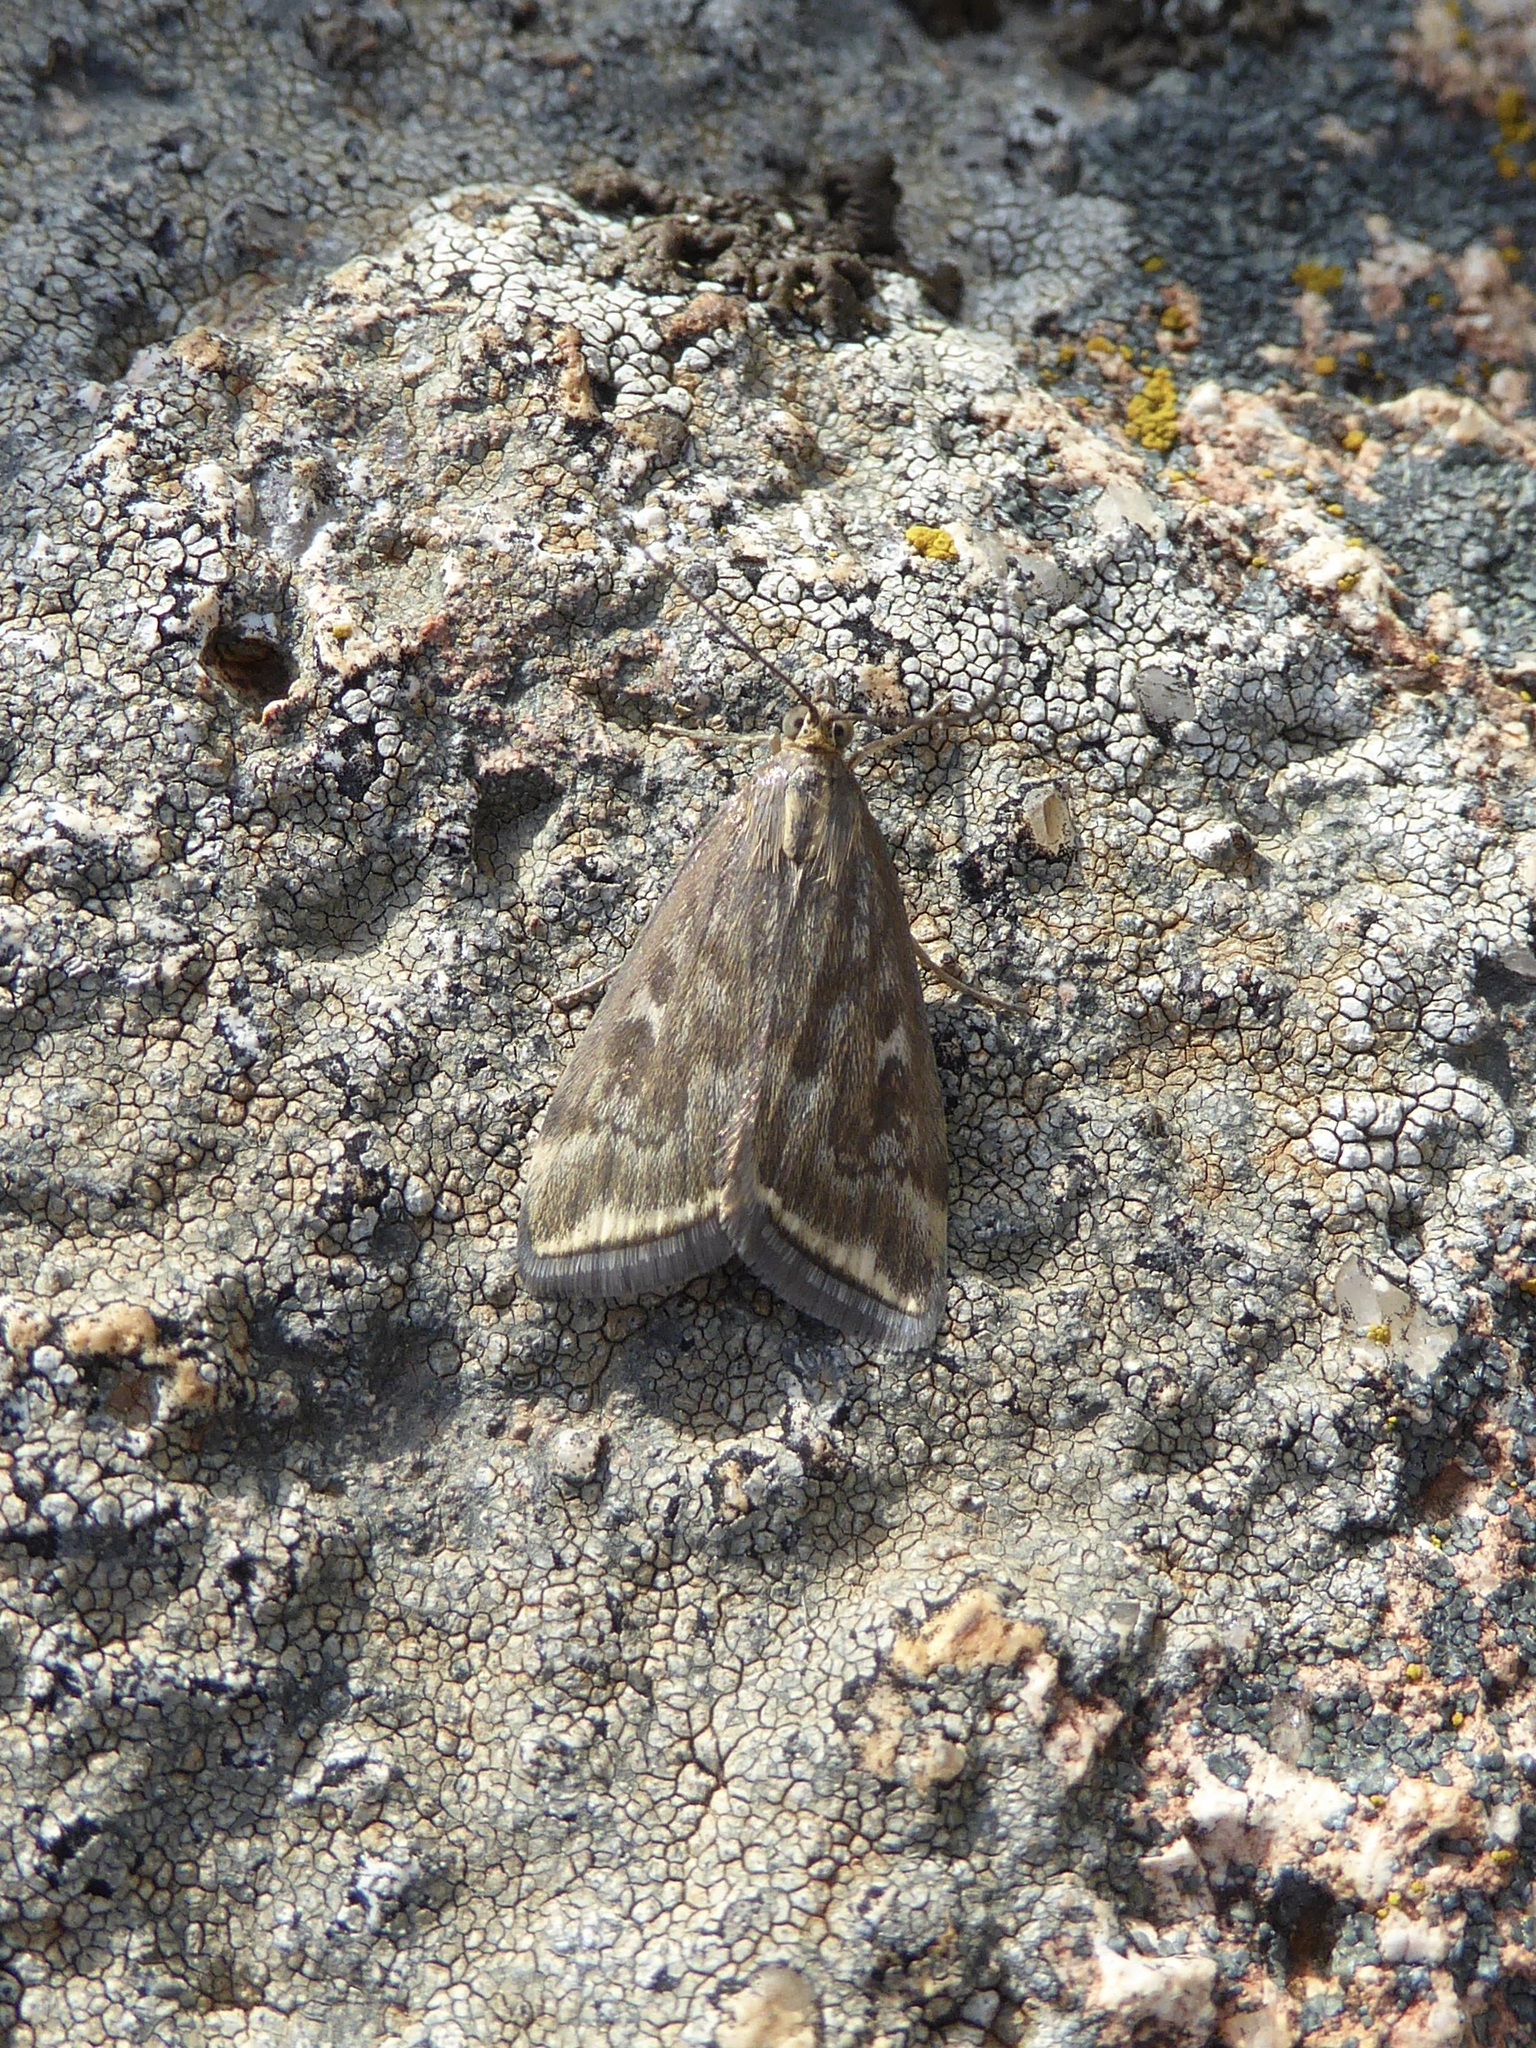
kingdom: Animalia
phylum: Arthropoda
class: Insecta
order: Lepidoptera
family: Crambidae
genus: Loxostege
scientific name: Loxostege sticticalis
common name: Crambid moth
